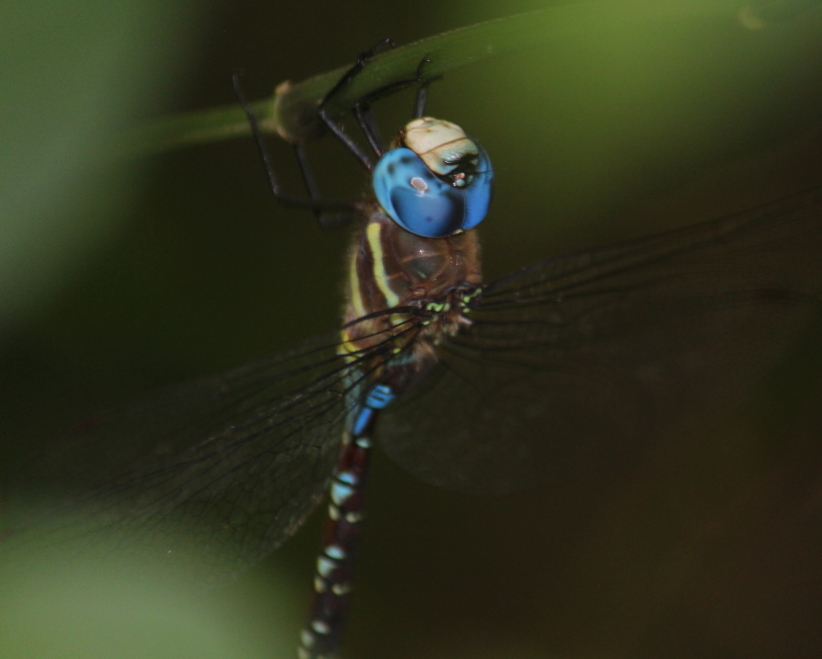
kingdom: Animalia
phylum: Arthropoda
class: Insecta
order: Odonata
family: Aeshnidae
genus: Anaciaeschna
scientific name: Anaciaeschna triangulifera
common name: Evening hawker
